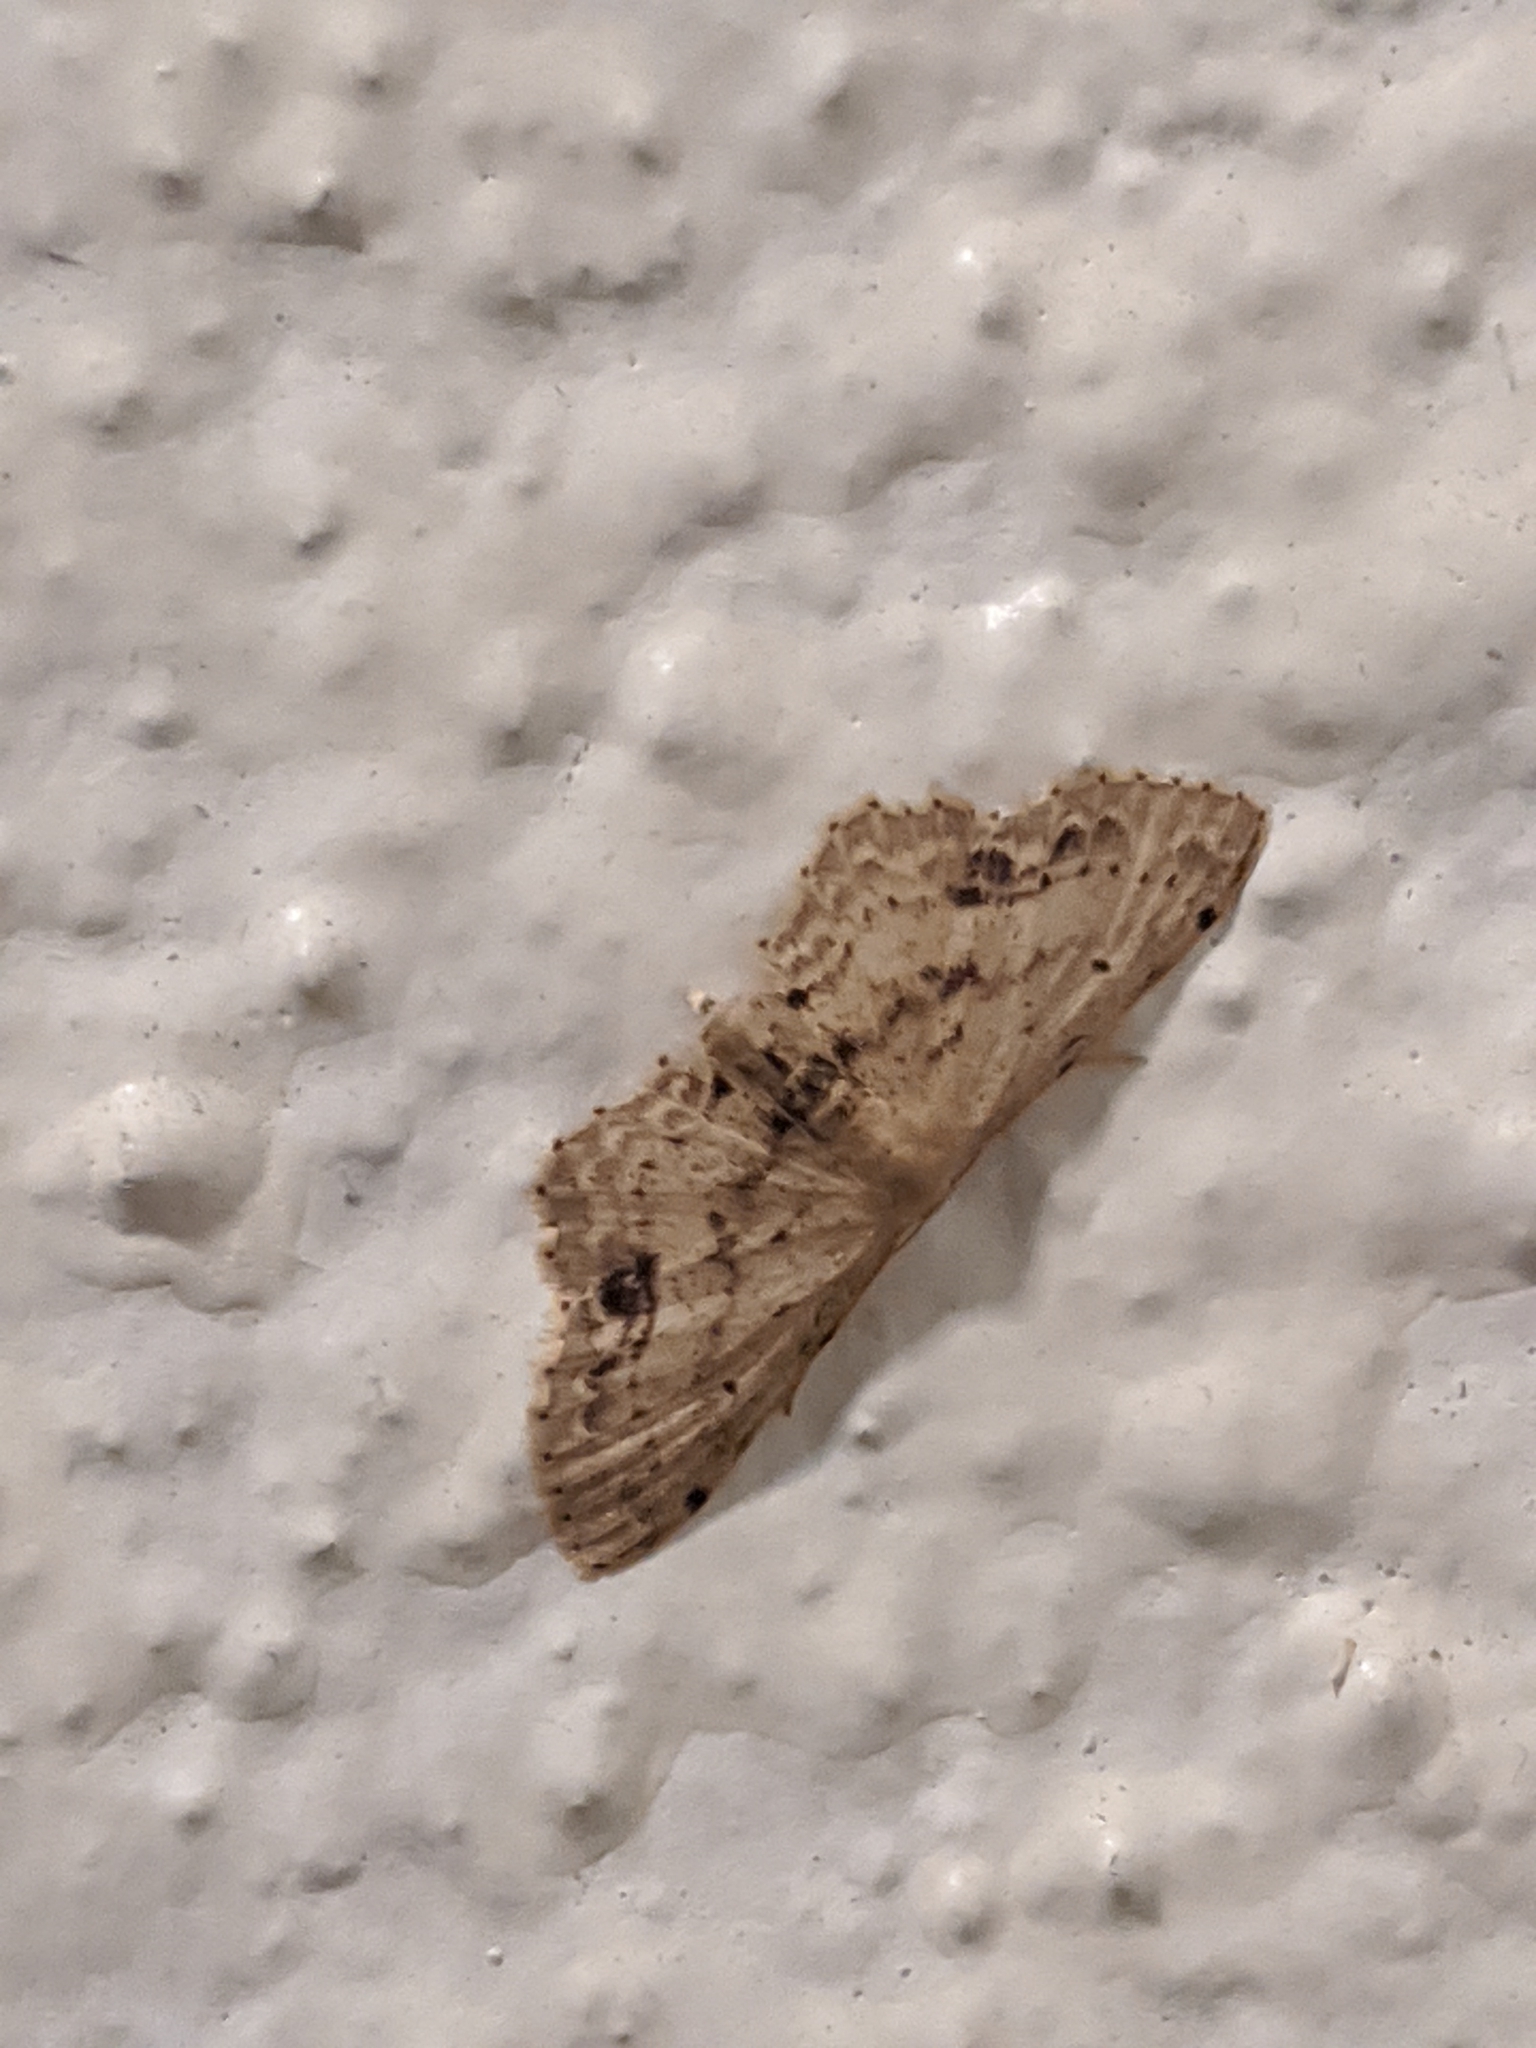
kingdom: Animalia
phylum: Arthropoda
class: Insecta
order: Lepidoptera
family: Geometridae
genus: Idaea
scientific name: Idaea dimidiata
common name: Single-dotted wave
